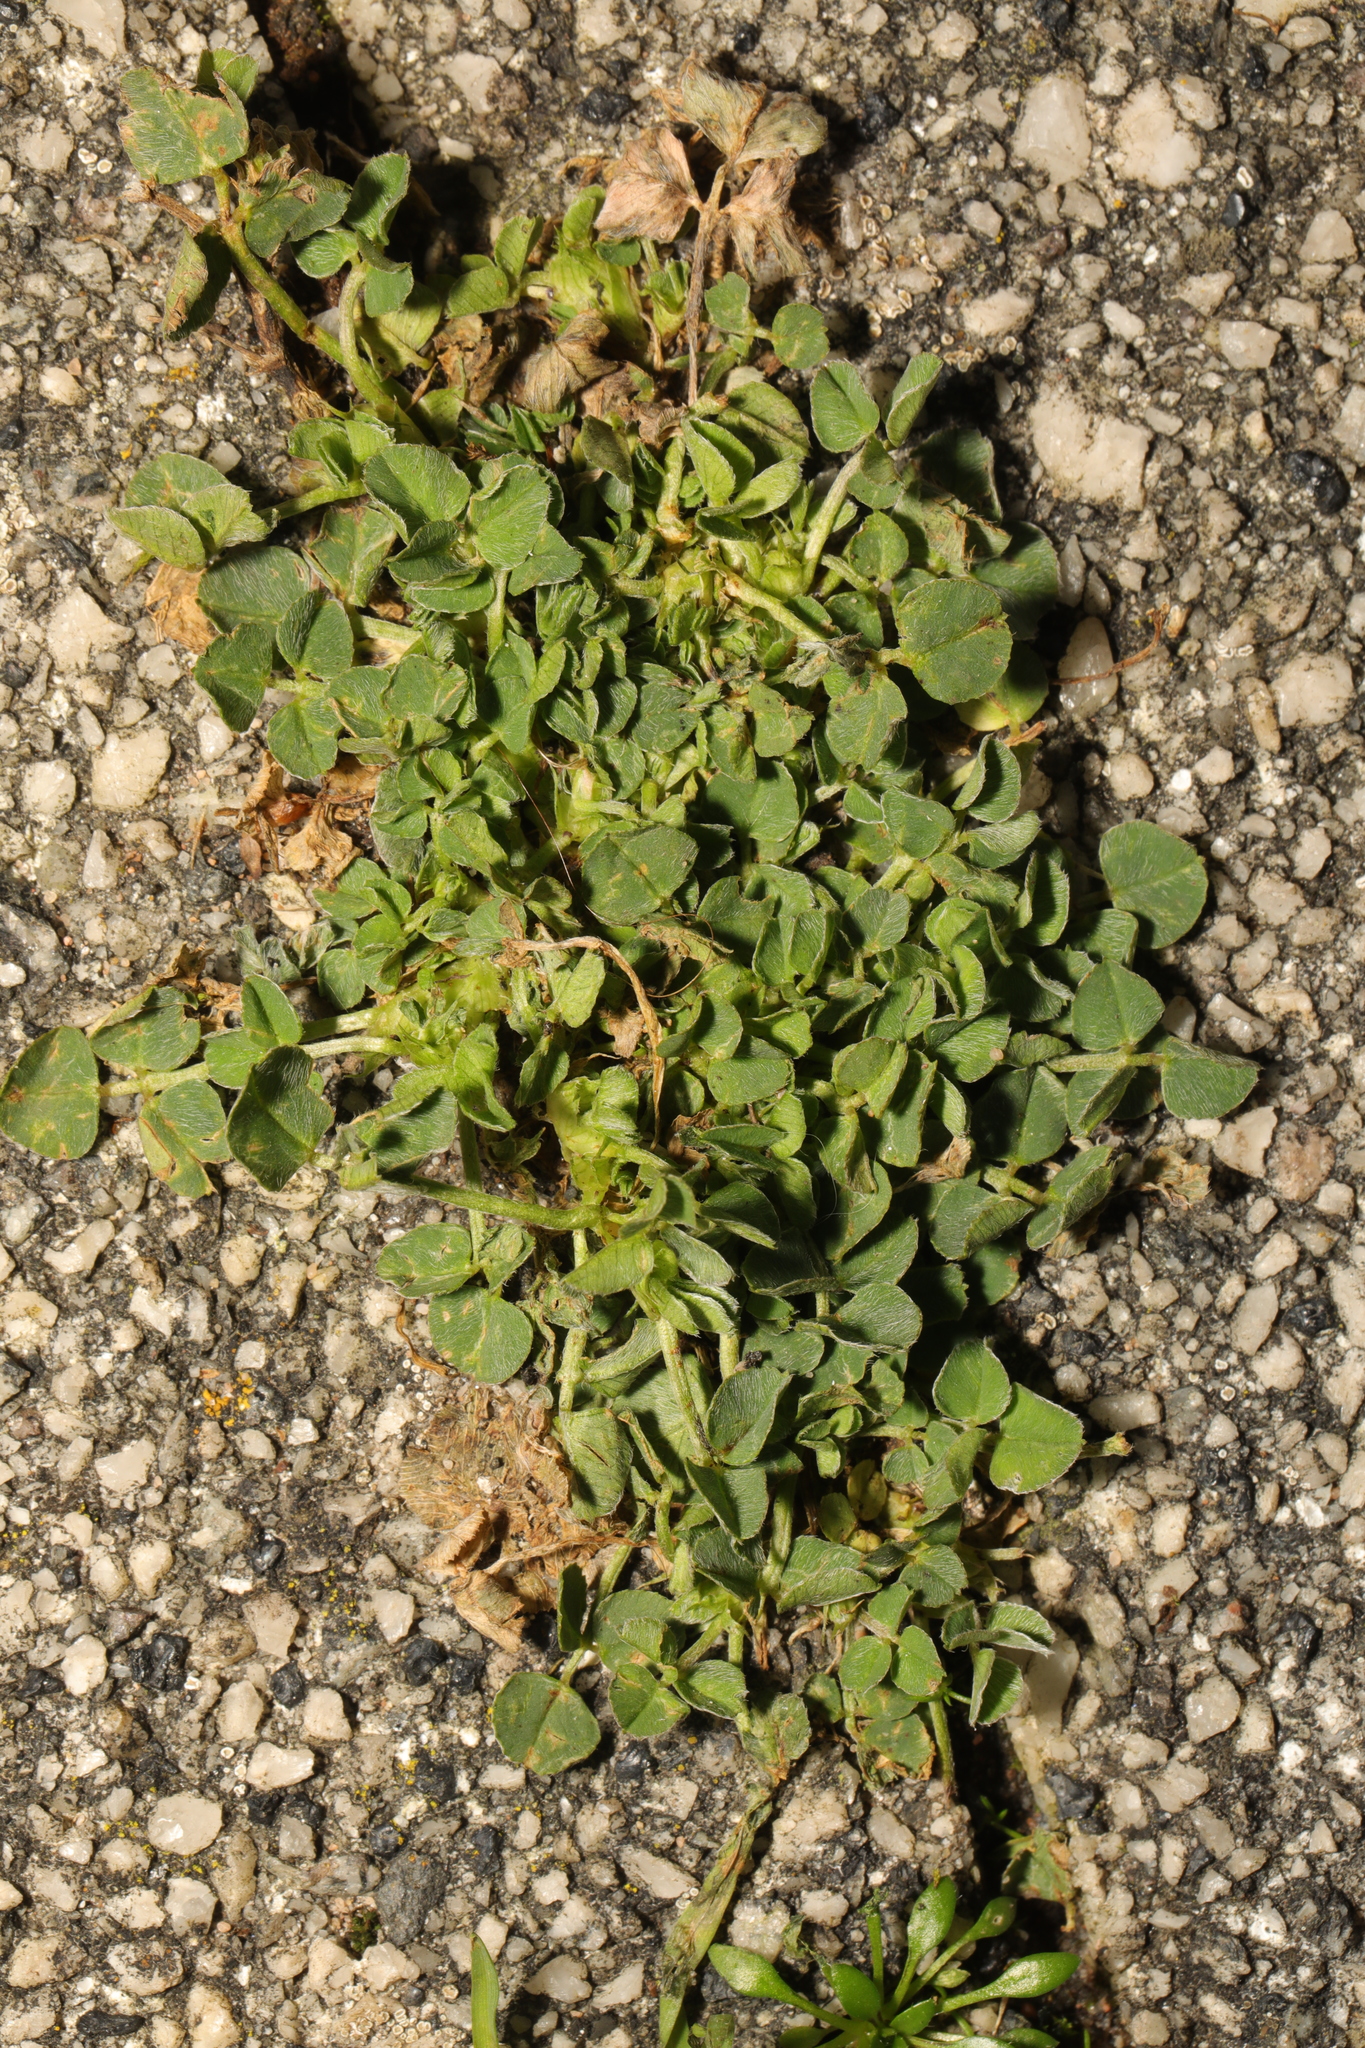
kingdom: Plantae
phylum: Tracheophyta
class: Magnoliopsida
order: Fabales
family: Fabaceae
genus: Medicago
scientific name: Medicago lupulina
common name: Black medick
